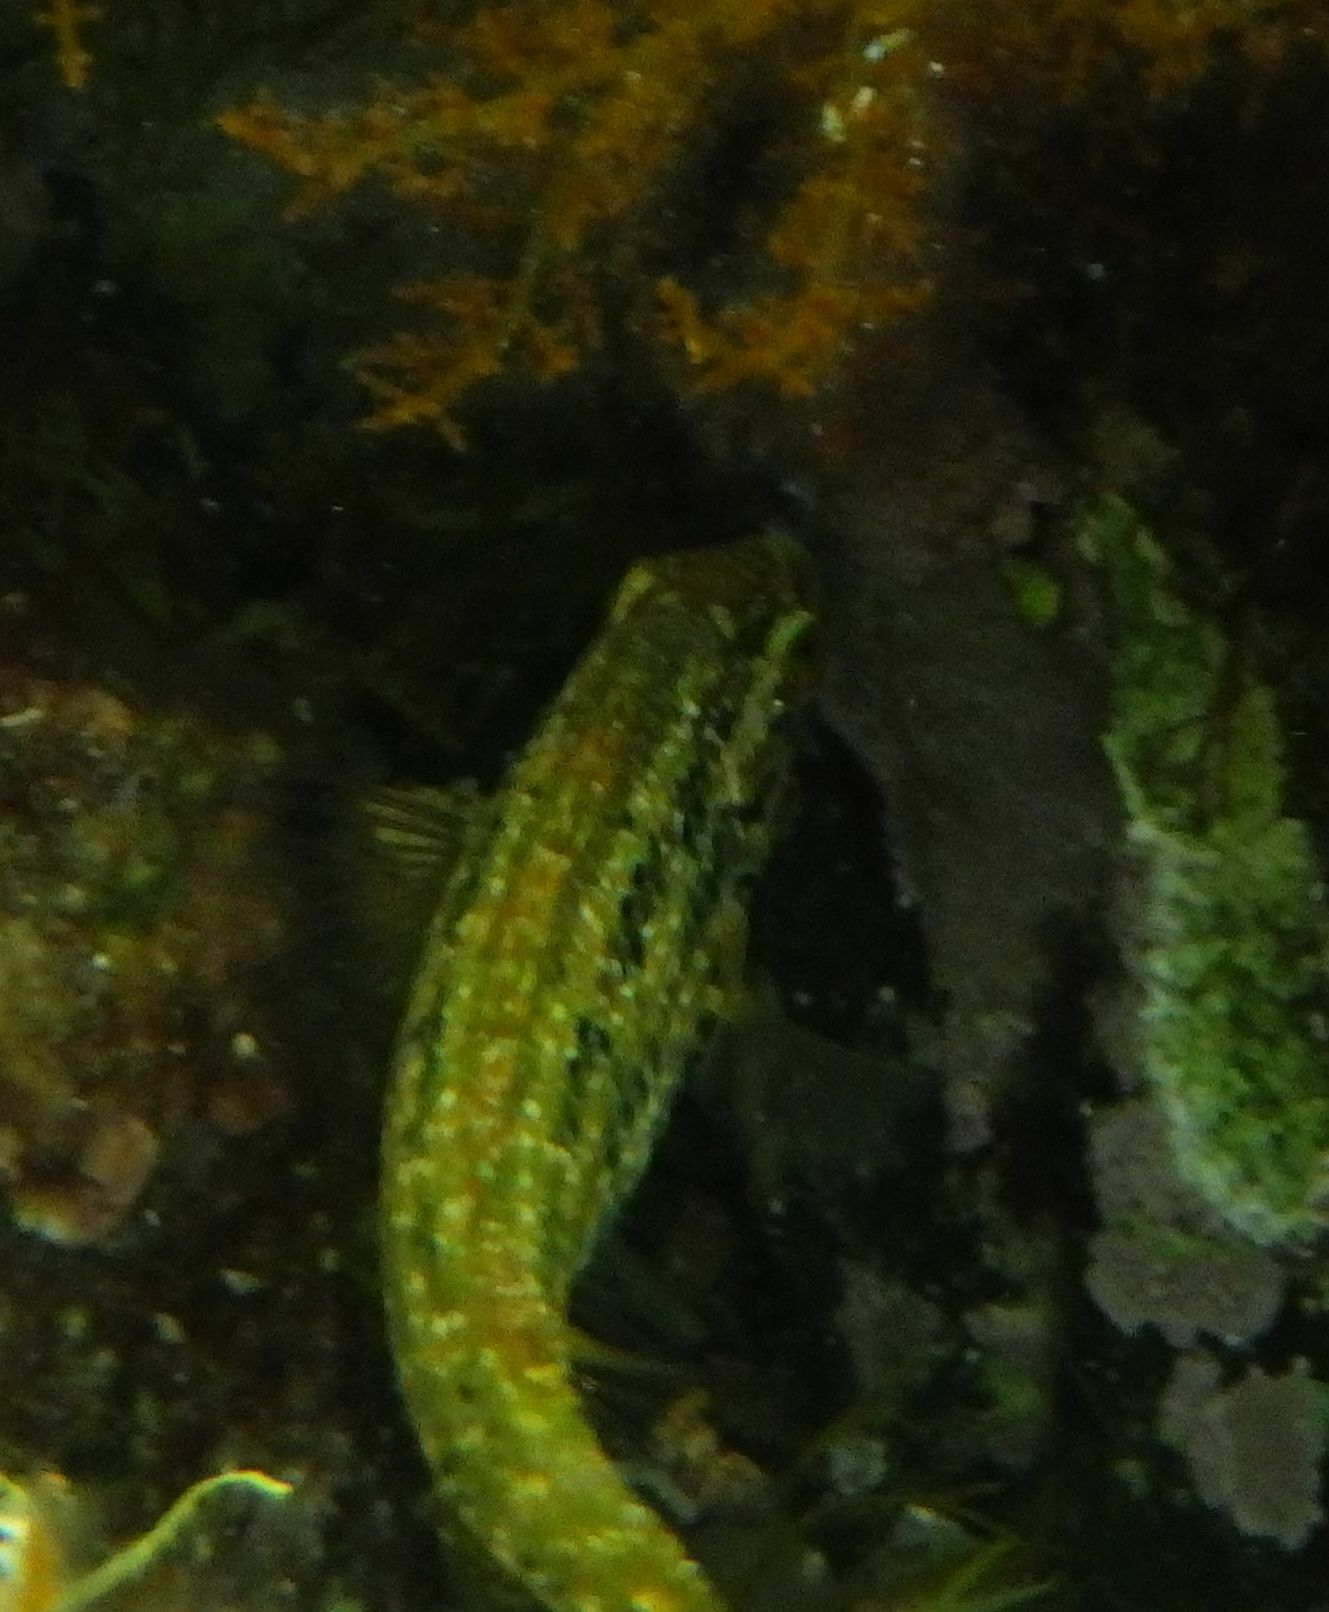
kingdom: Animalia
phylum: Chordata
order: Perciformes
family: Labridae
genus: Symphodus
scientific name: Symphodus roissali
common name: Five-spotted wrasse
